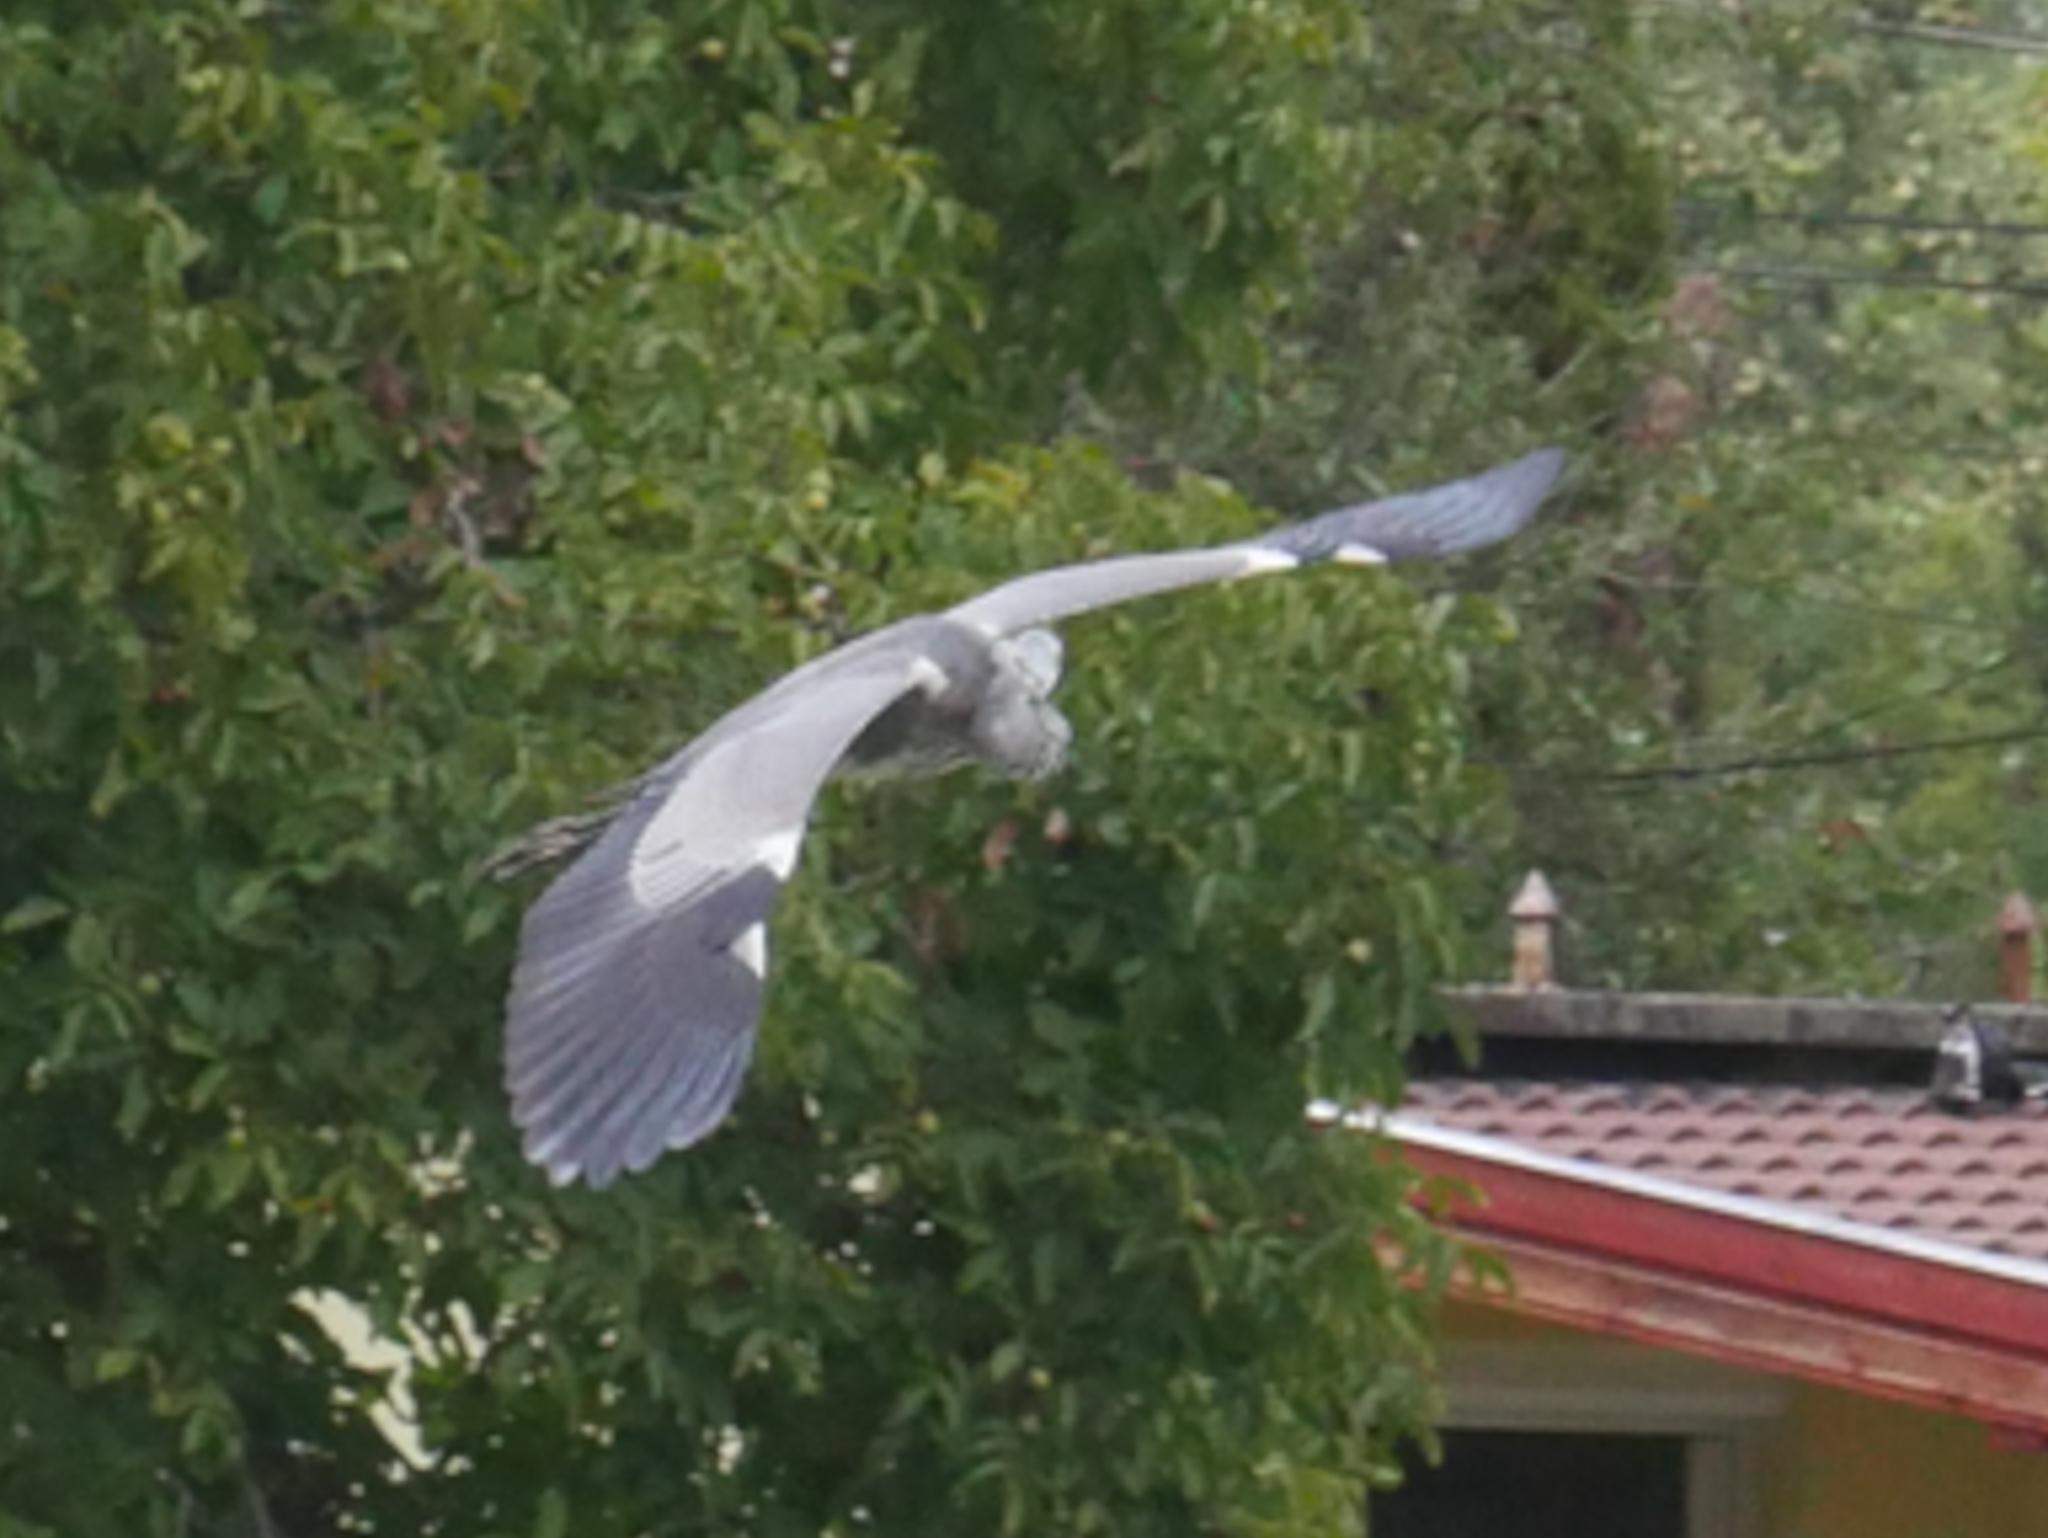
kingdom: Animalia
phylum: Chordata
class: Aves
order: Pelecaniformes
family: Ardeidae
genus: Ardea
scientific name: Ardea cinerea
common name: Grey heron
